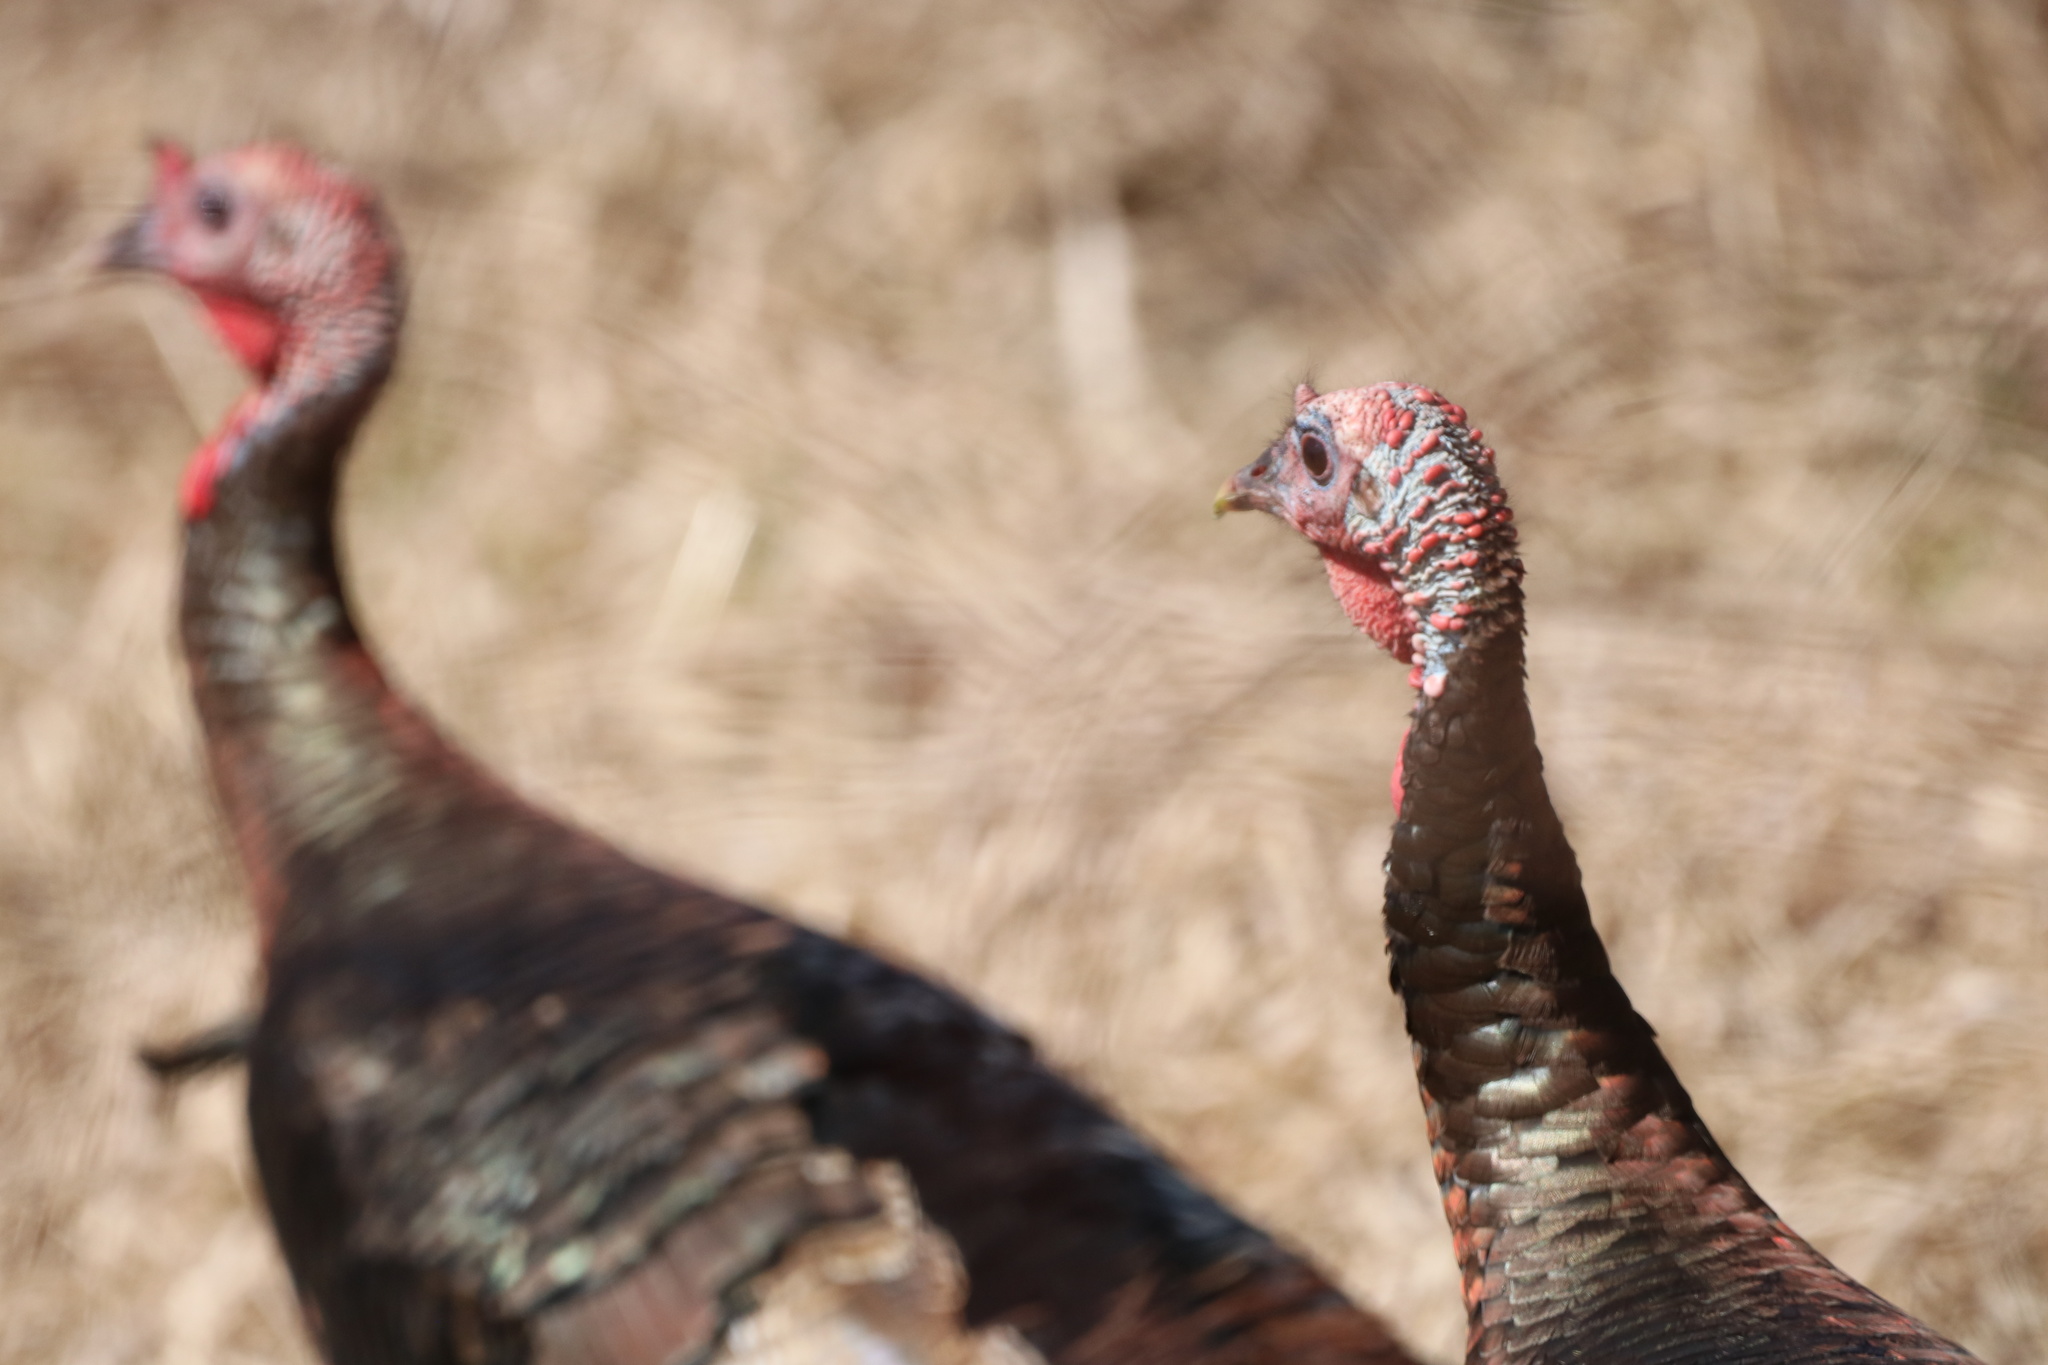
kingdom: Animalia
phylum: Chordata
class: Aves
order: Galliformes
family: Phasianidae
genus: Meleagris
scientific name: Meleagris gallopavo
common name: Wild turkey
